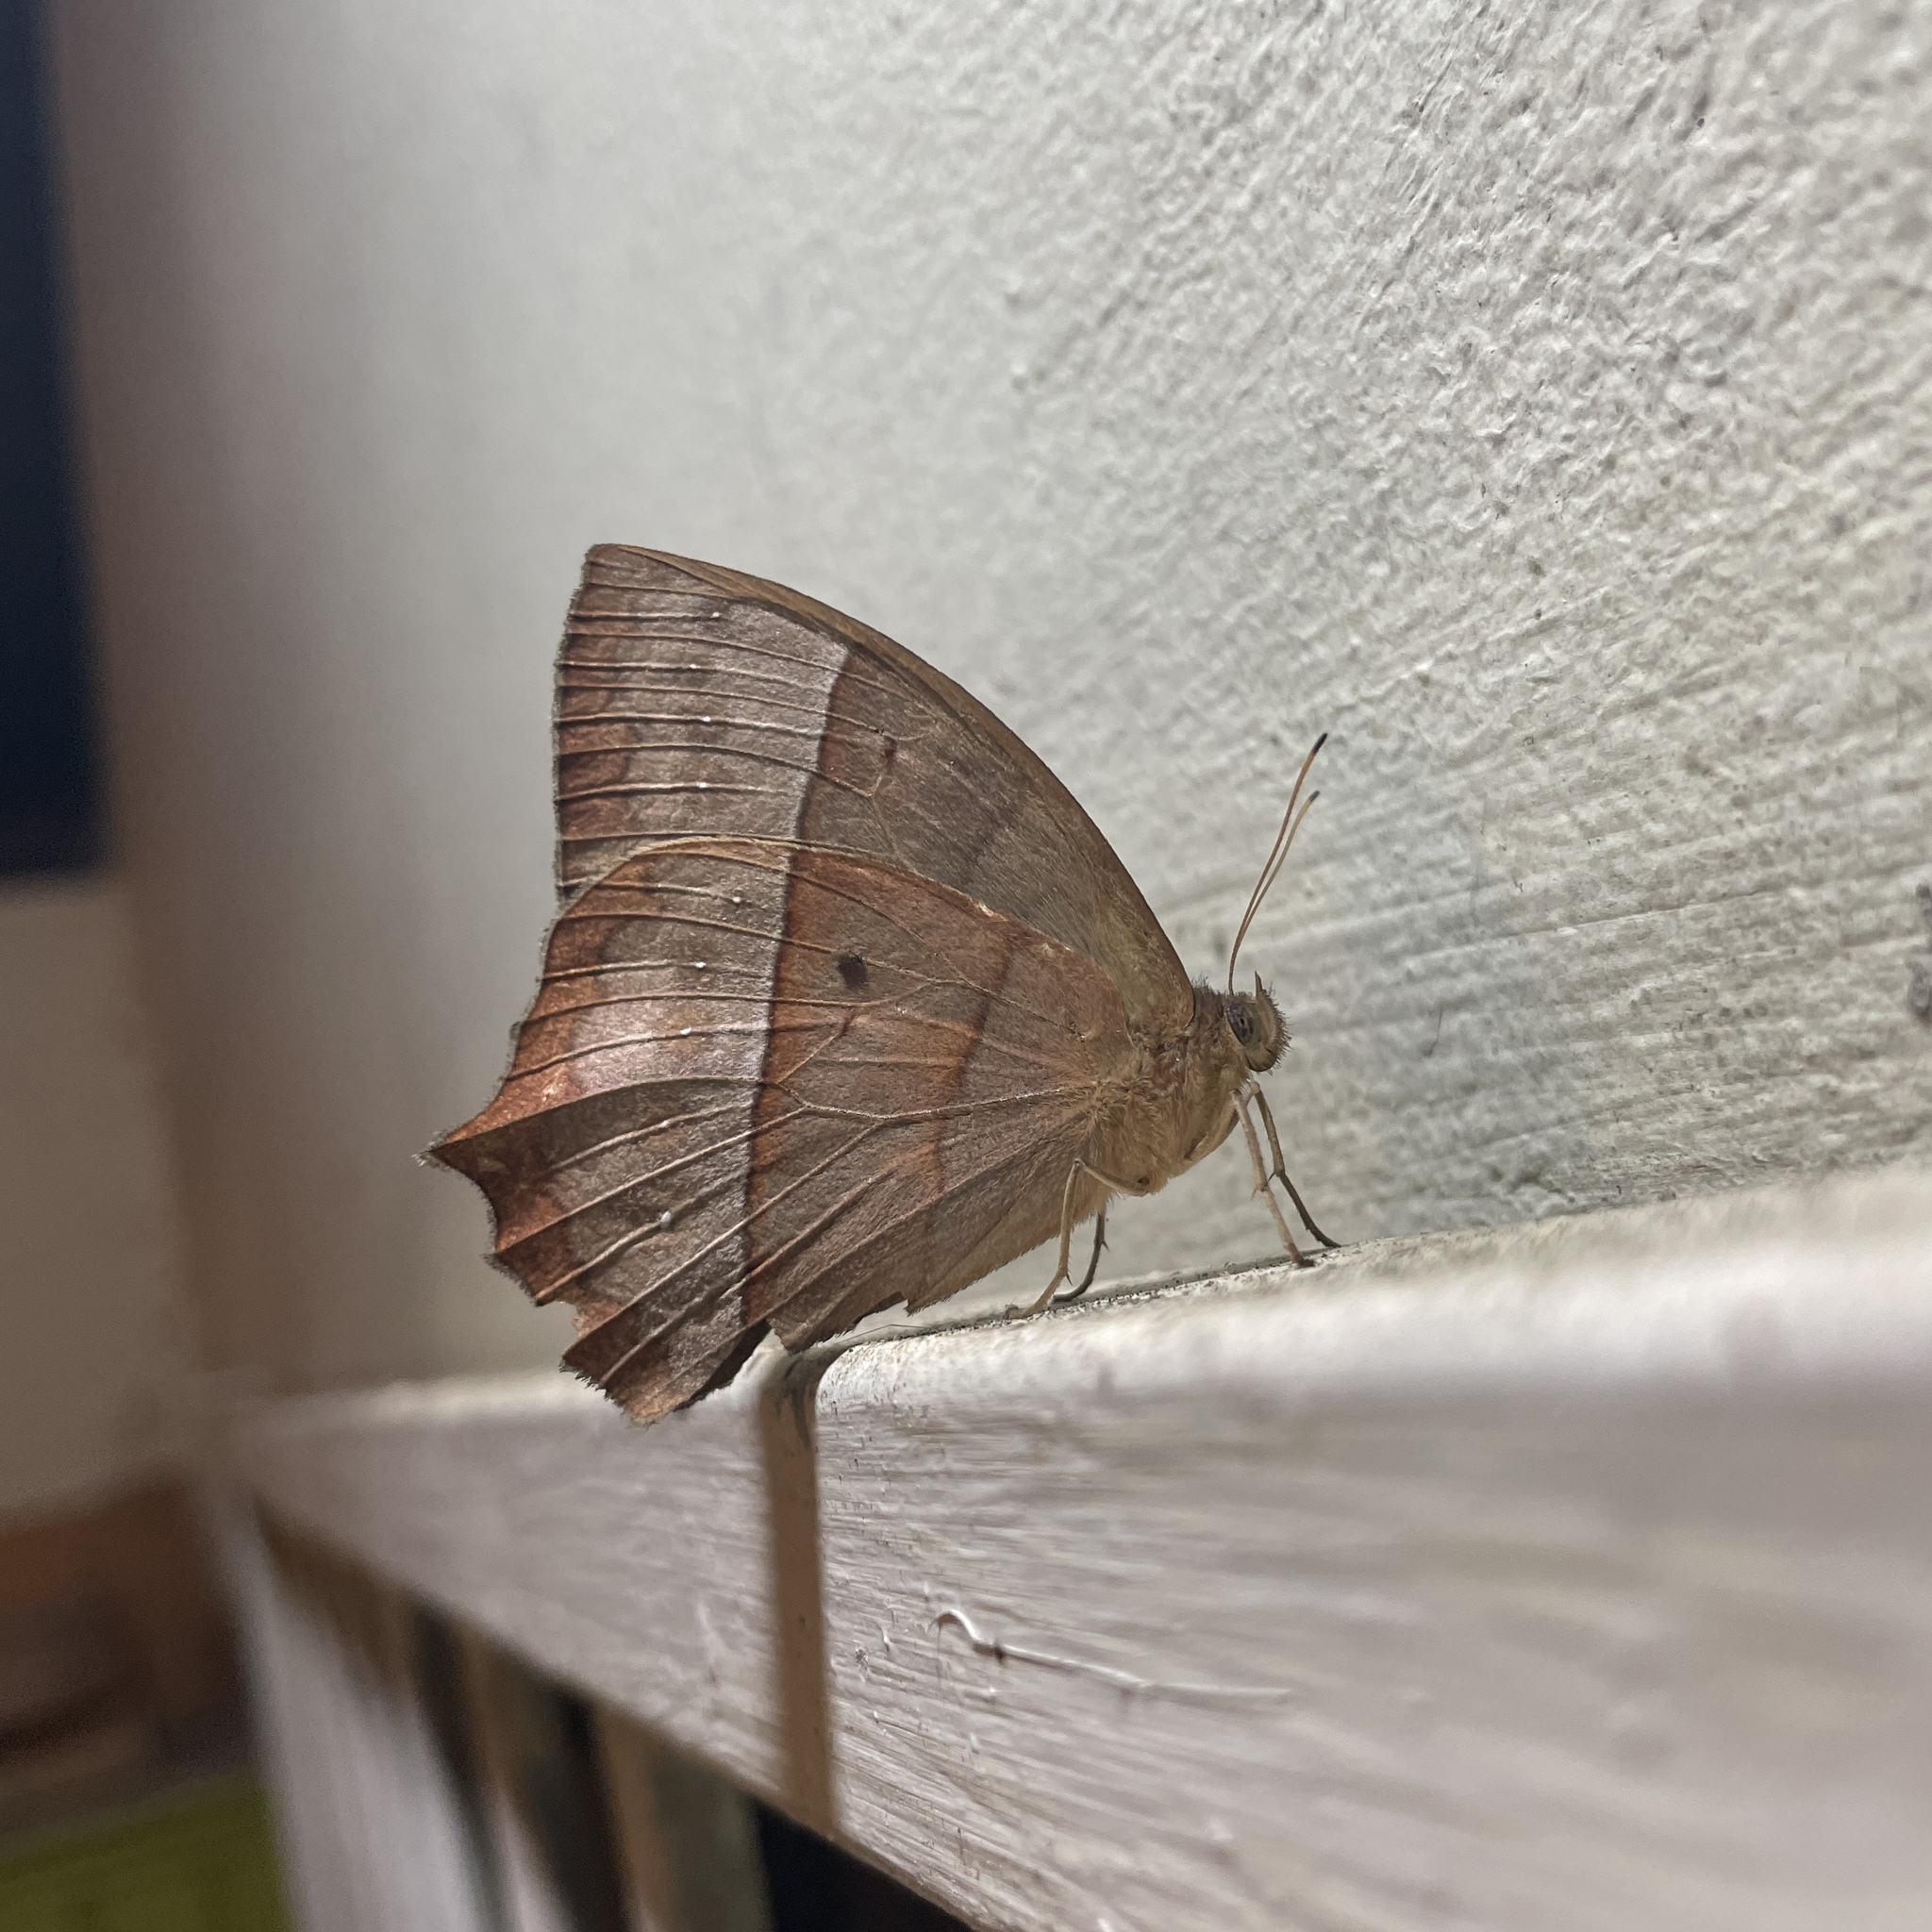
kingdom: Animalia
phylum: Arthropoda
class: Insecta
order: Lepidoptera
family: Nymphalidae
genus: Taygetis
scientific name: Taygetis virgilia
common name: Stub-tailed satyr
